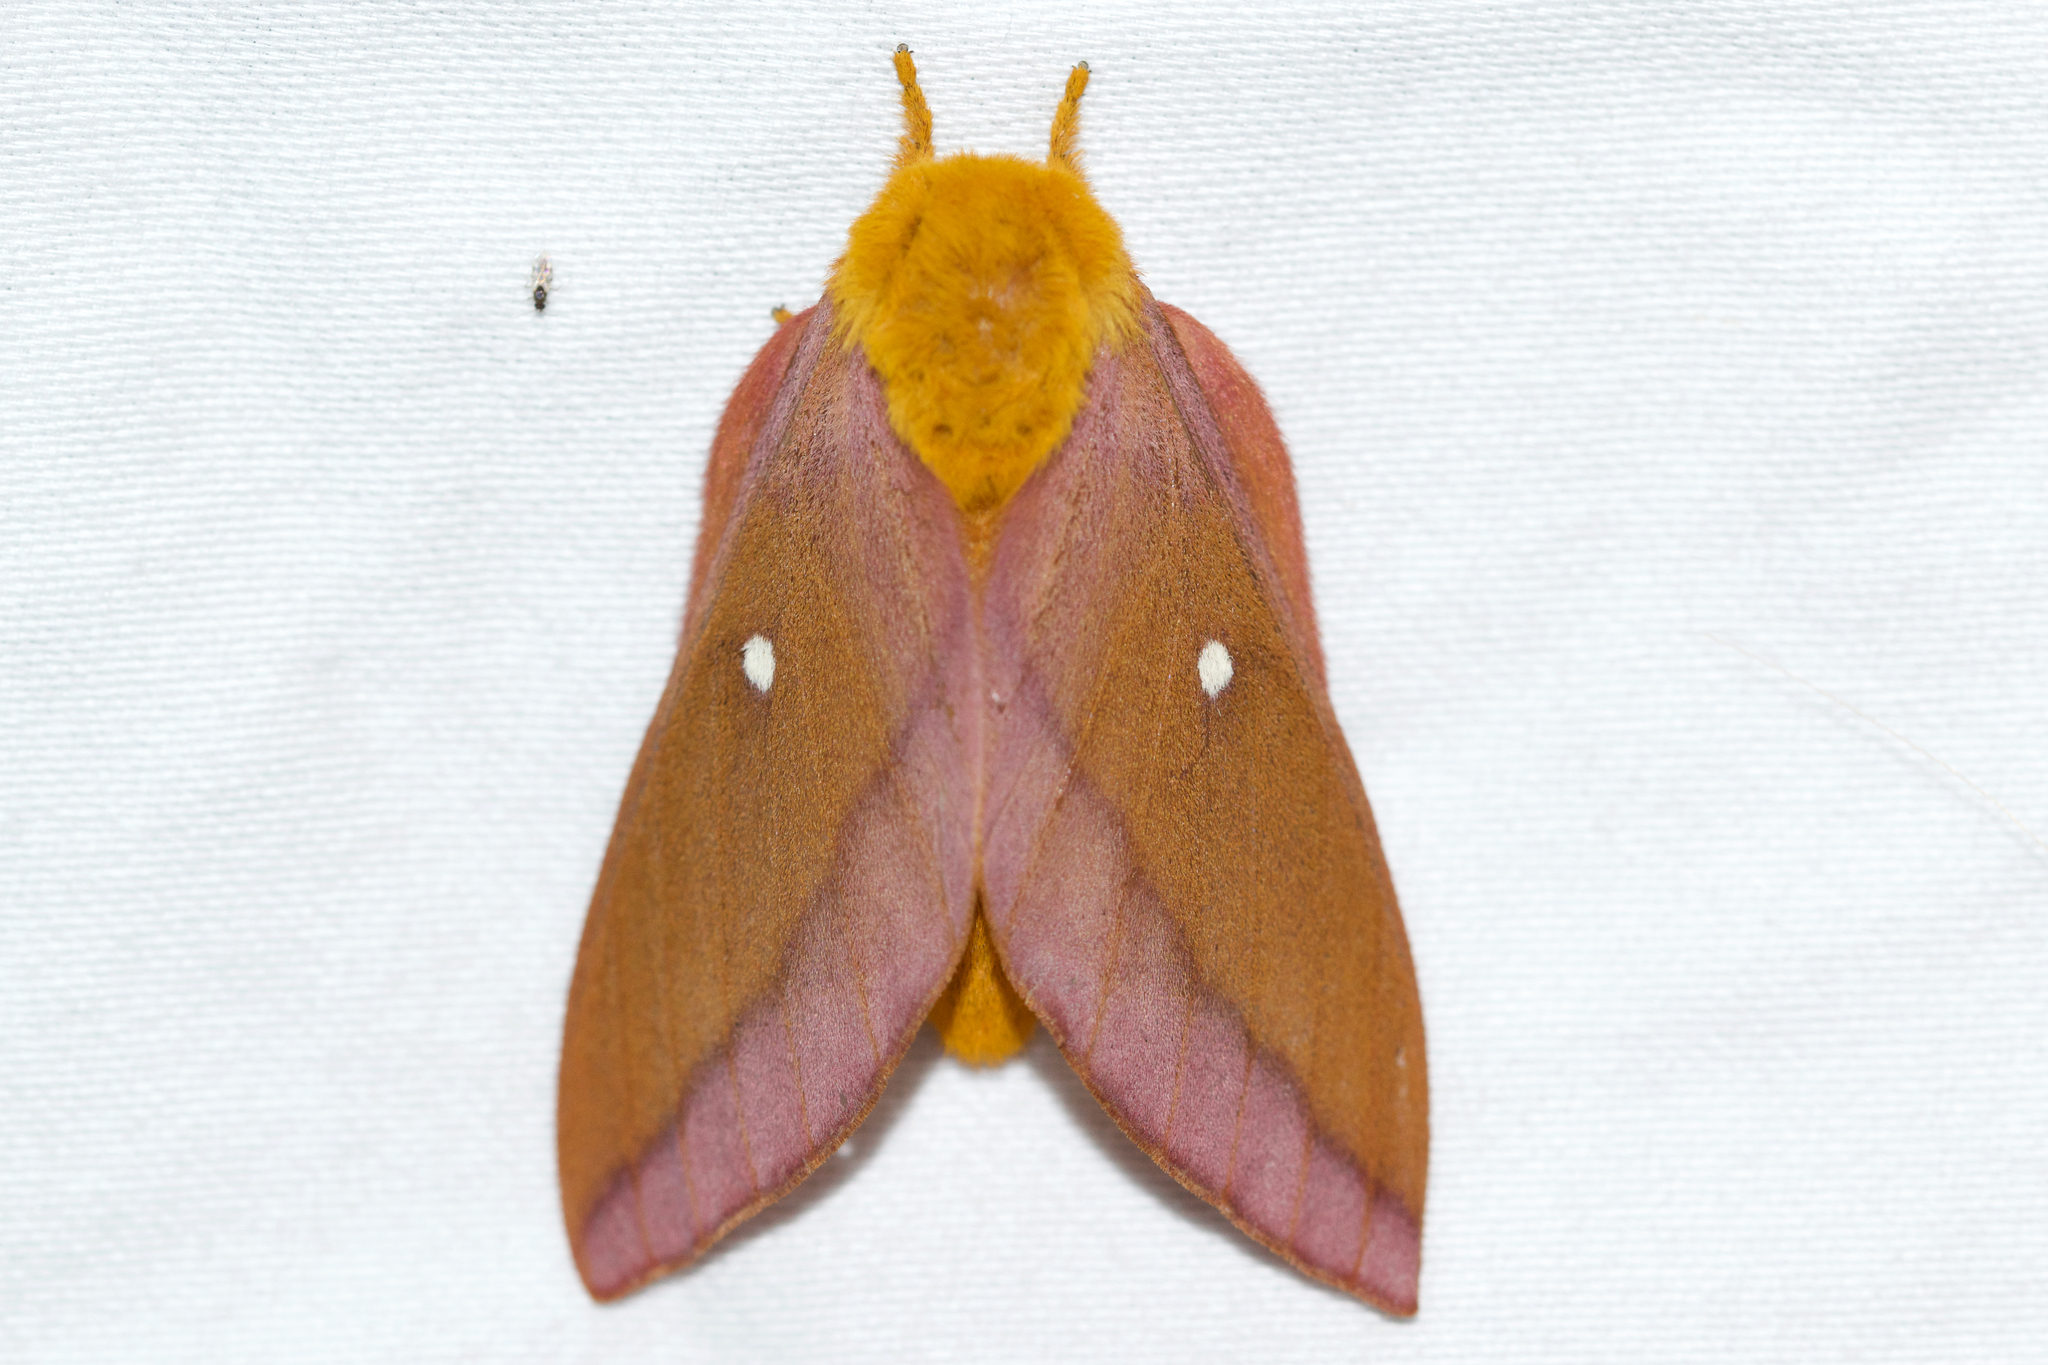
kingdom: Animalia
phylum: Arthropoda
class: Insecta
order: Lepidoptera
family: Saturniidae
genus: Anisota
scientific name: Anisota virginiensis
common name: Pink striped oakworm moth
